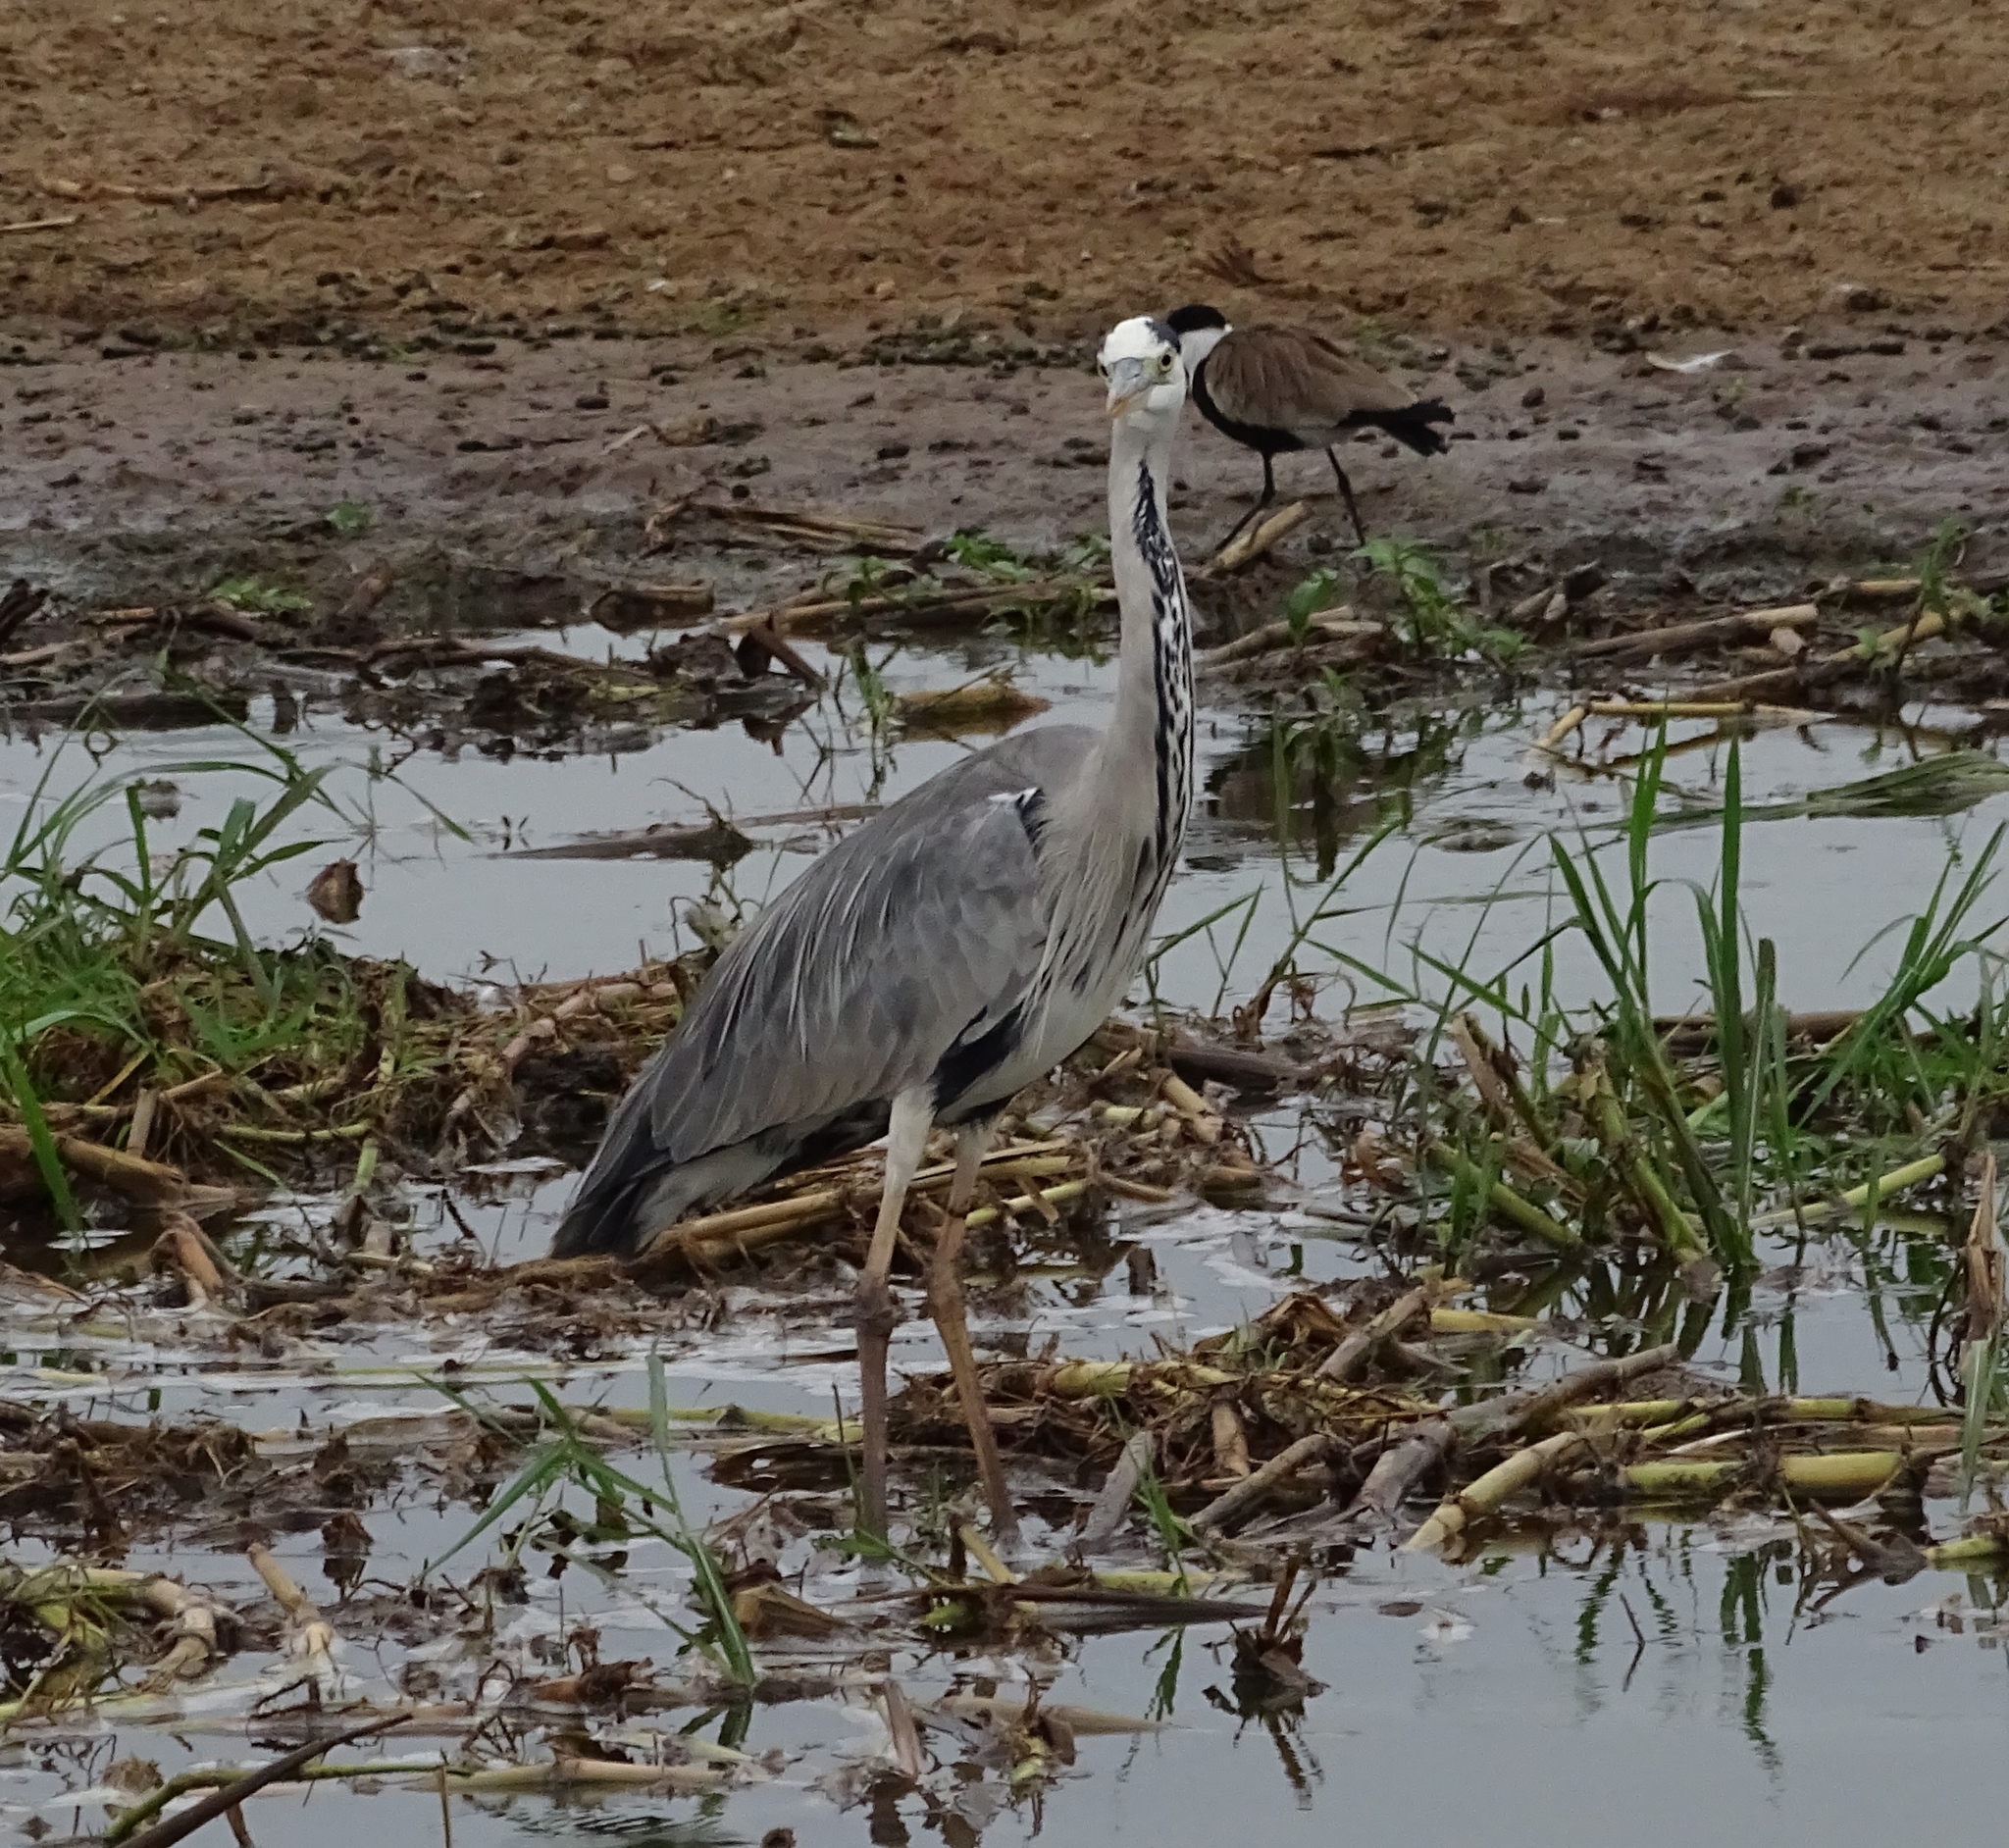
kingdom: Animalia
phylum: Chordata
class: Aves
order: Pelecaniformes
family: Ardeidae
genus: Ardea
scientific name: Ardea cinerea
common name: Grey heron
